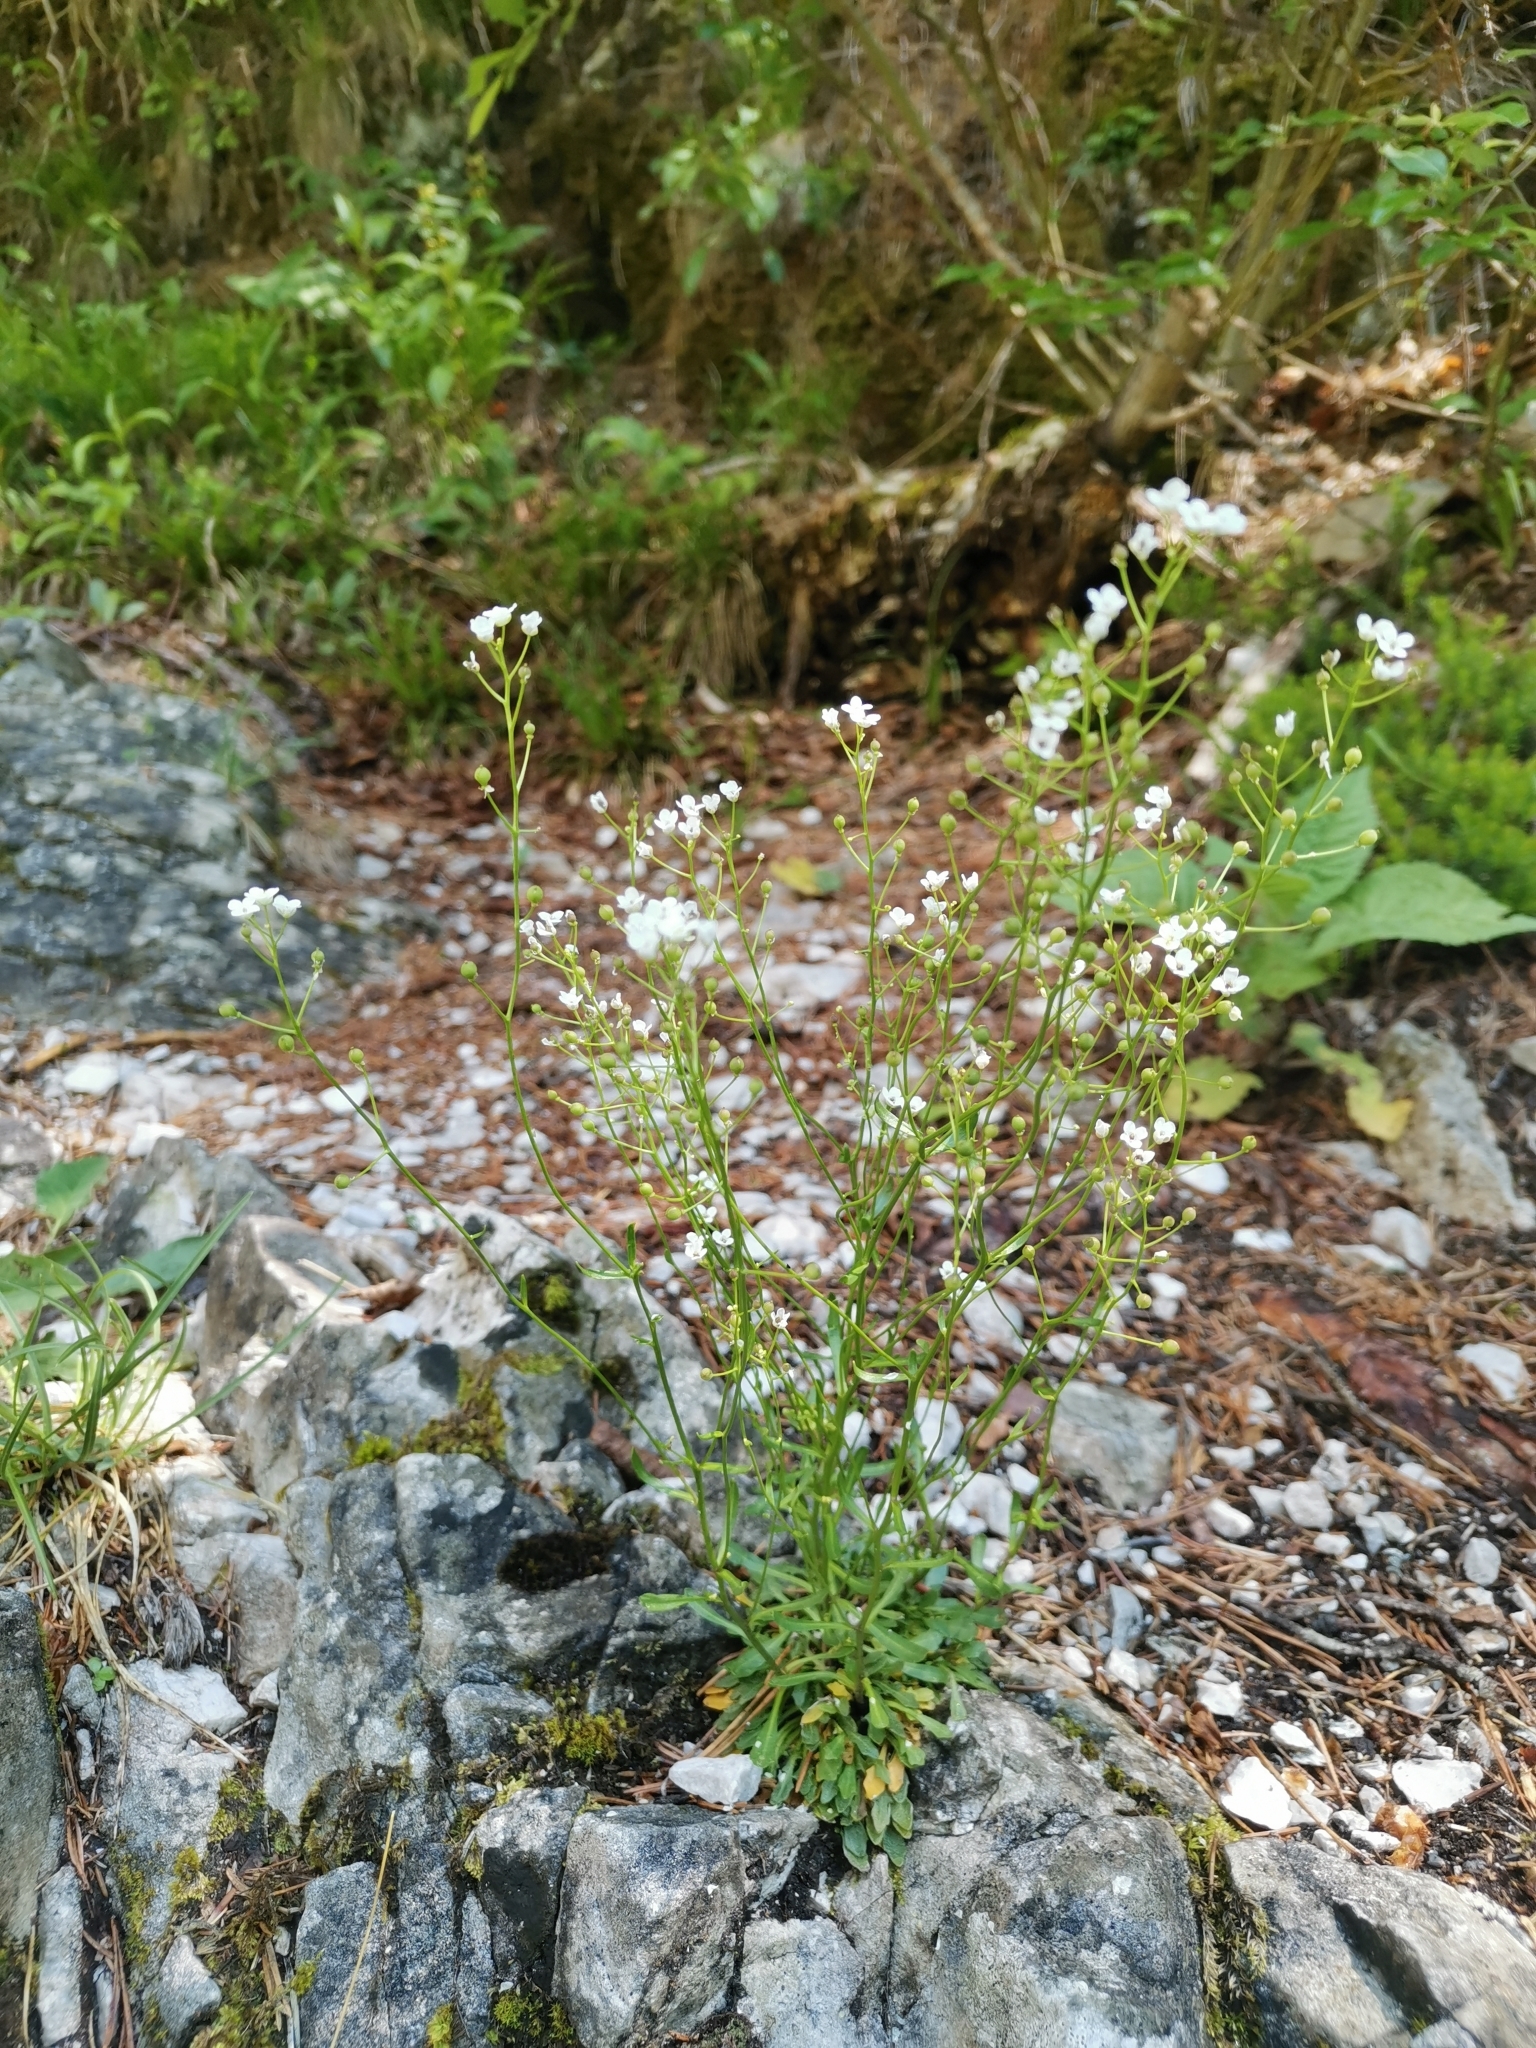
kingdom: Plantae
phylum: Tracheophyta
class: Magnoliopsida
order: Brassicales
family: Brassicaceae
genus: Kernera
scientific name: Kernera saxatilis
